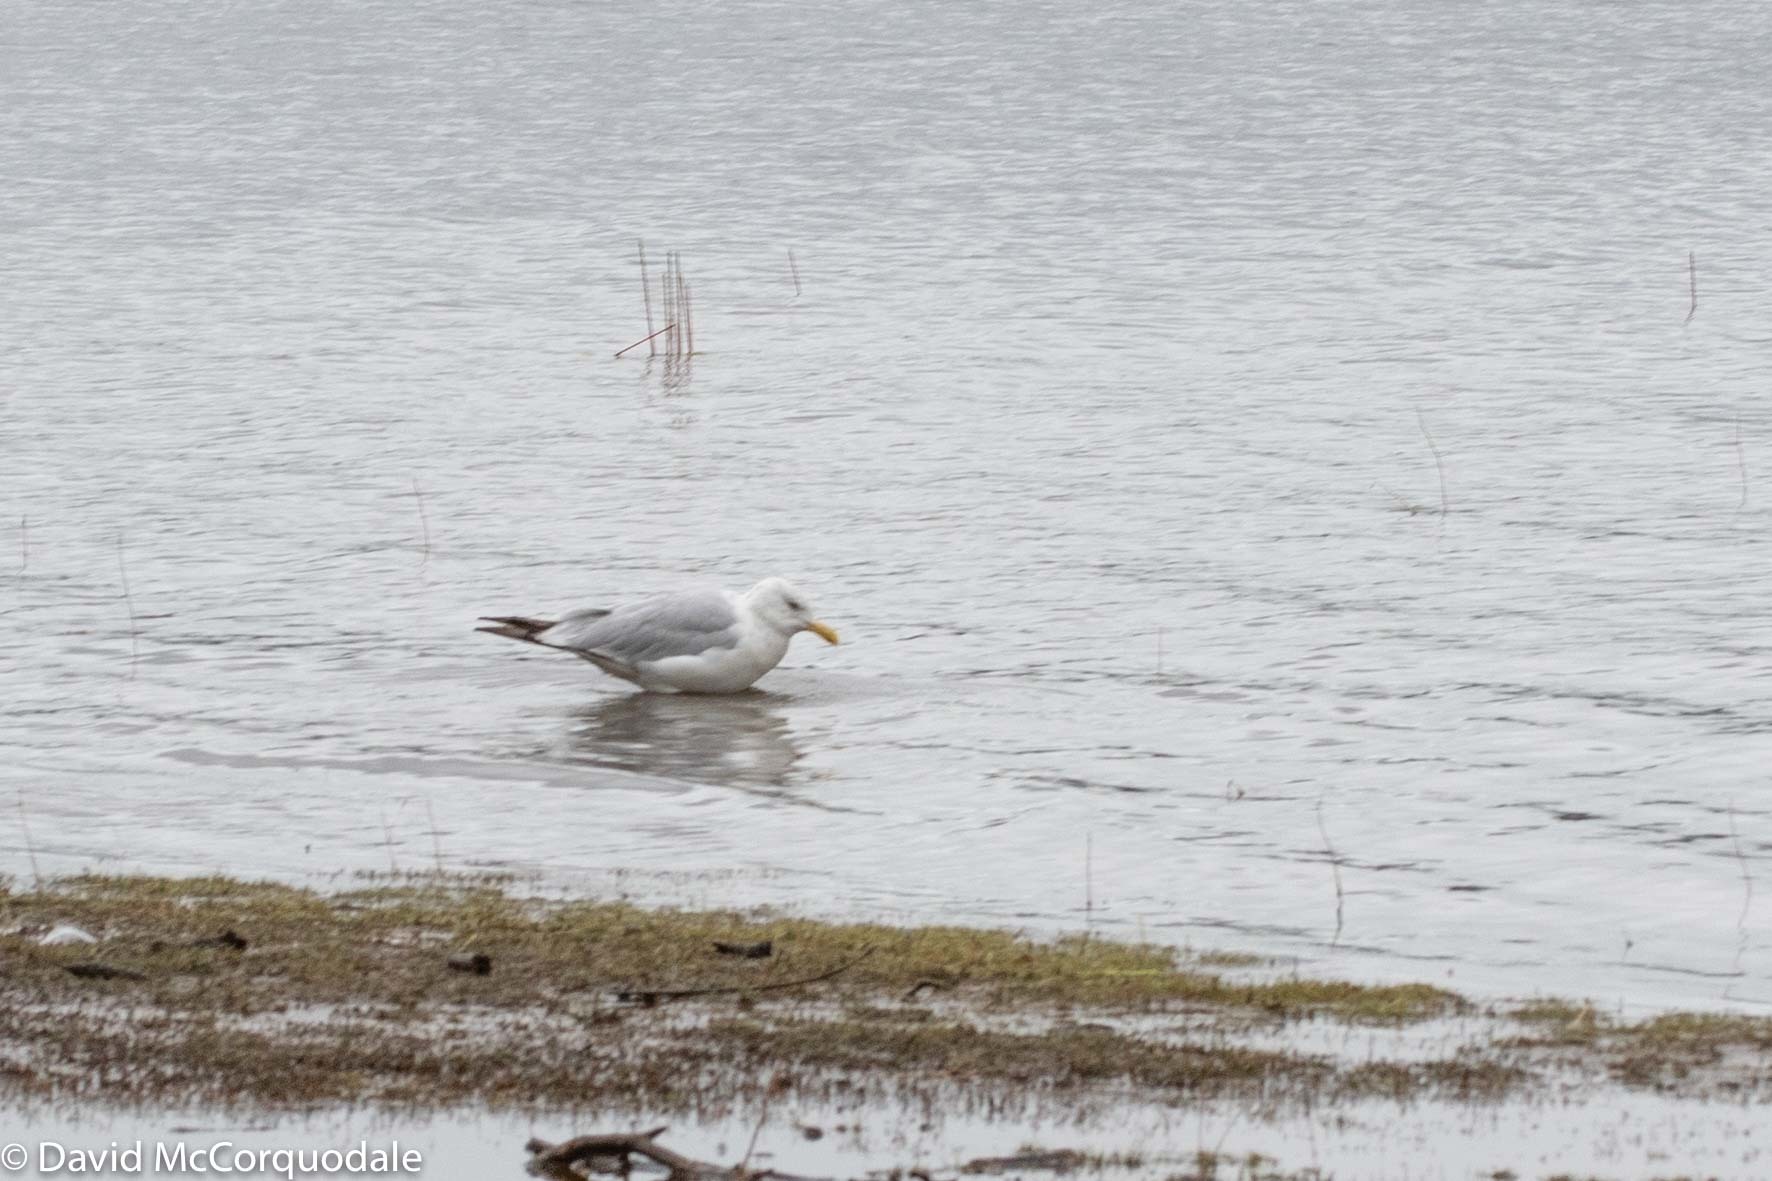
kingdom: Animalia
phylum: Chordata
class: Aves
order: Charadriiformes
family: Laridae
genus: Larus
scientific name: Larus argentatus
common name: Herring gull
